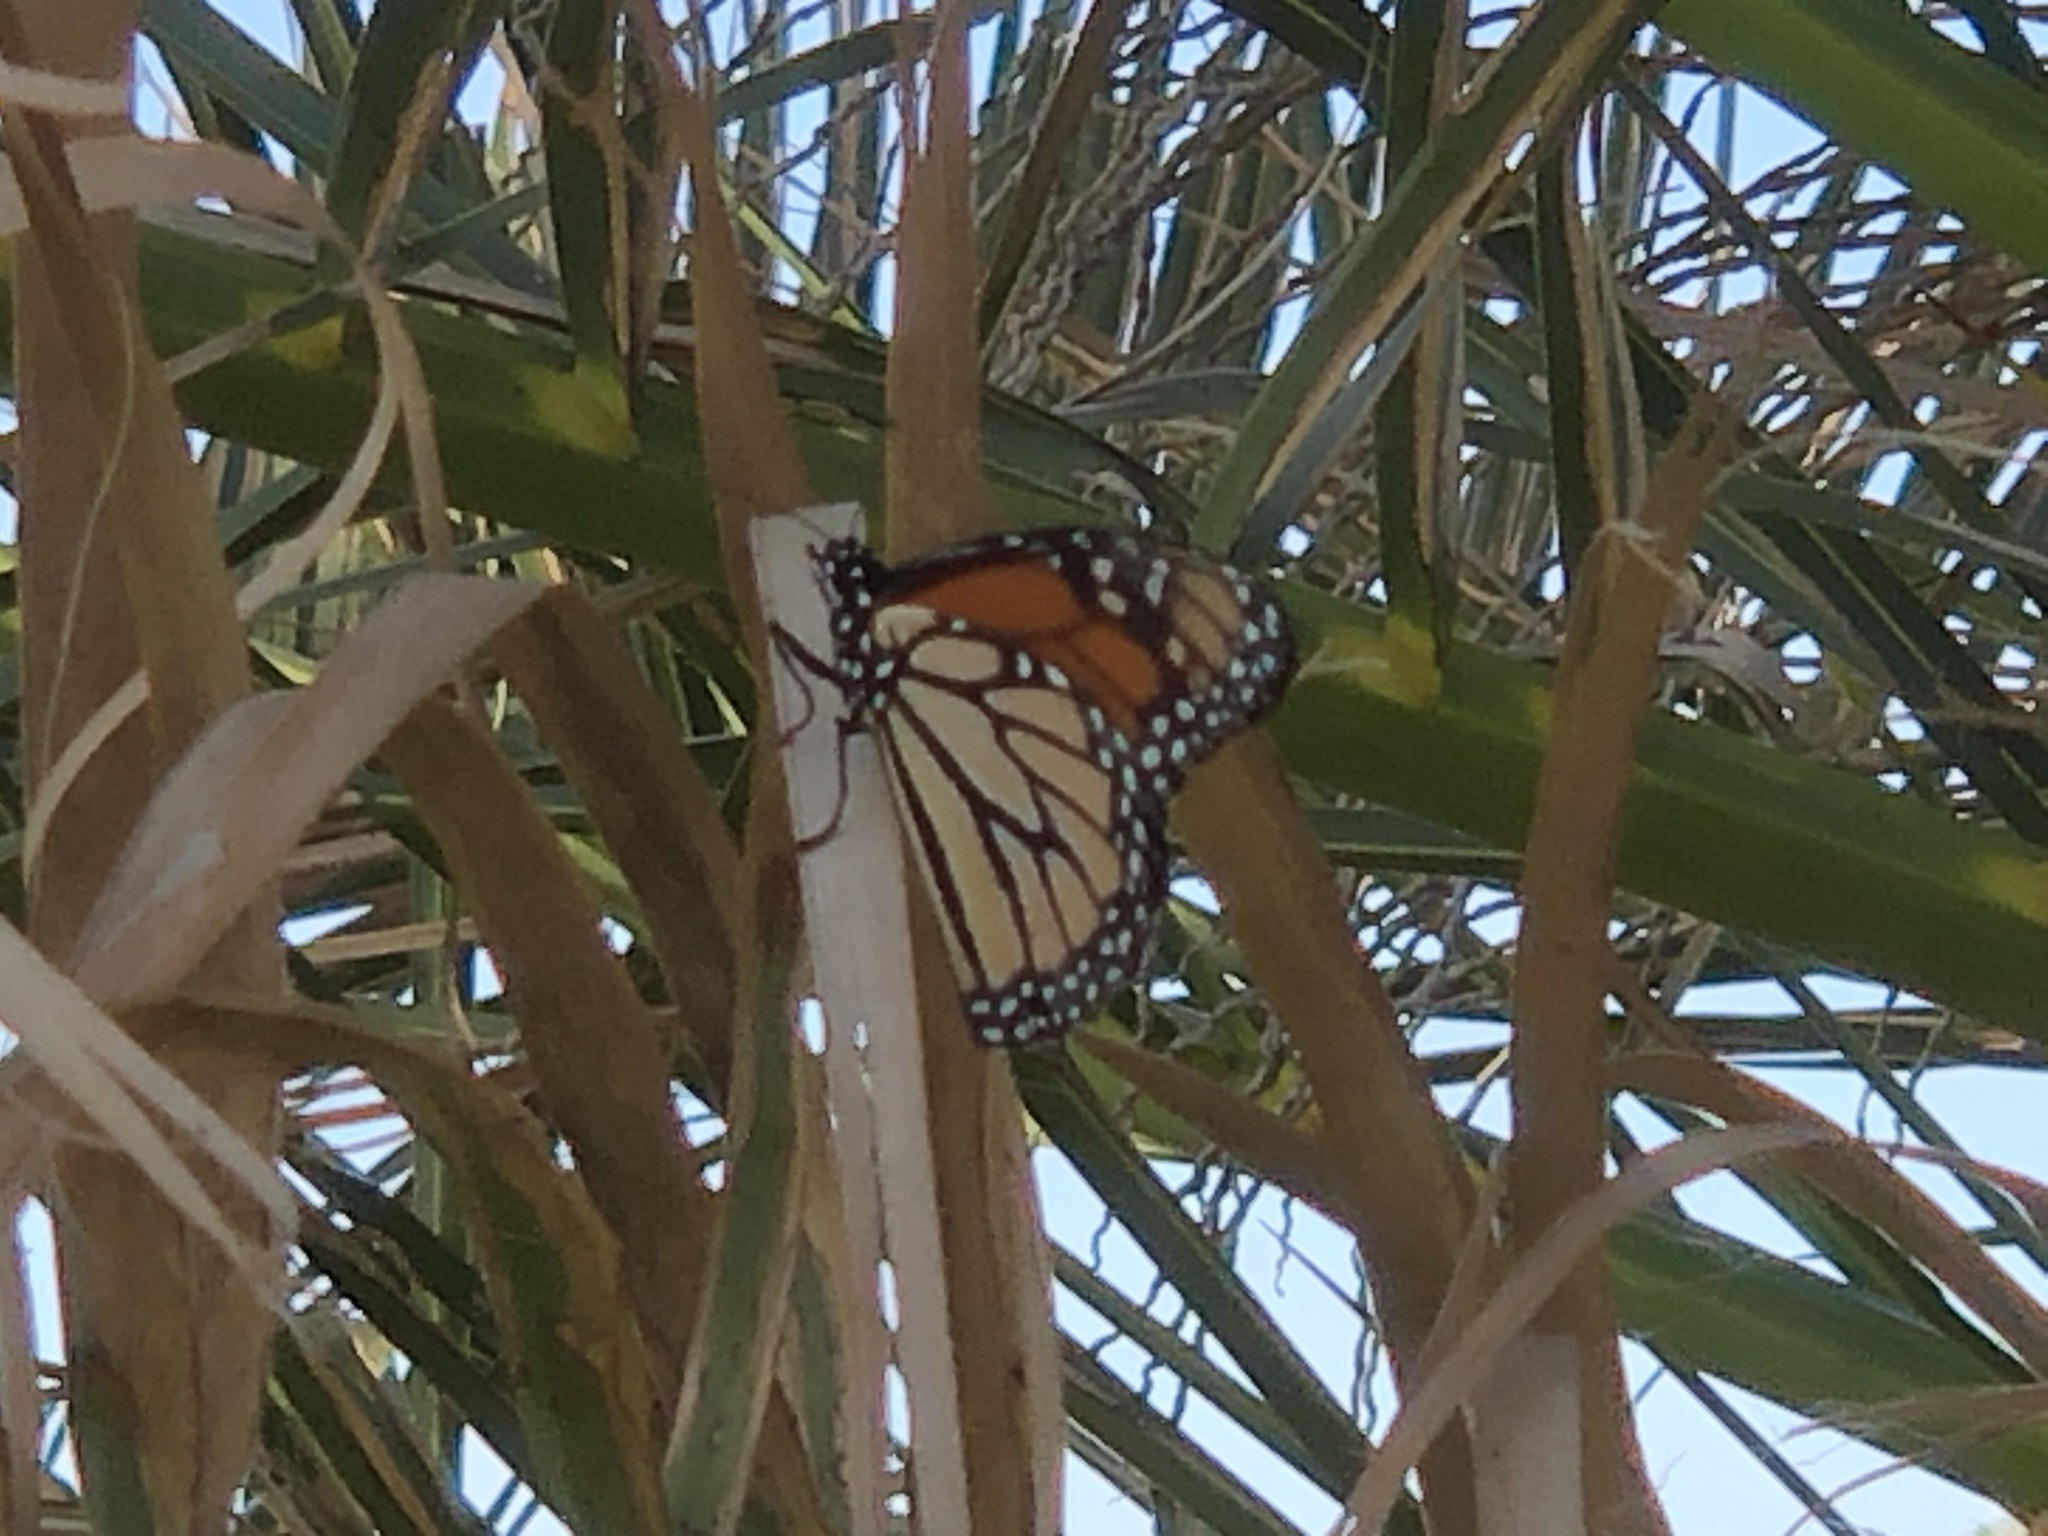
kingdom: Animalia
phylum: Arthropoda
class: Insecta
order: Lepidoptera
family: Nymphalidae
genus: Danaus
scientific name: Danaus plexippus
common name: Monarch
